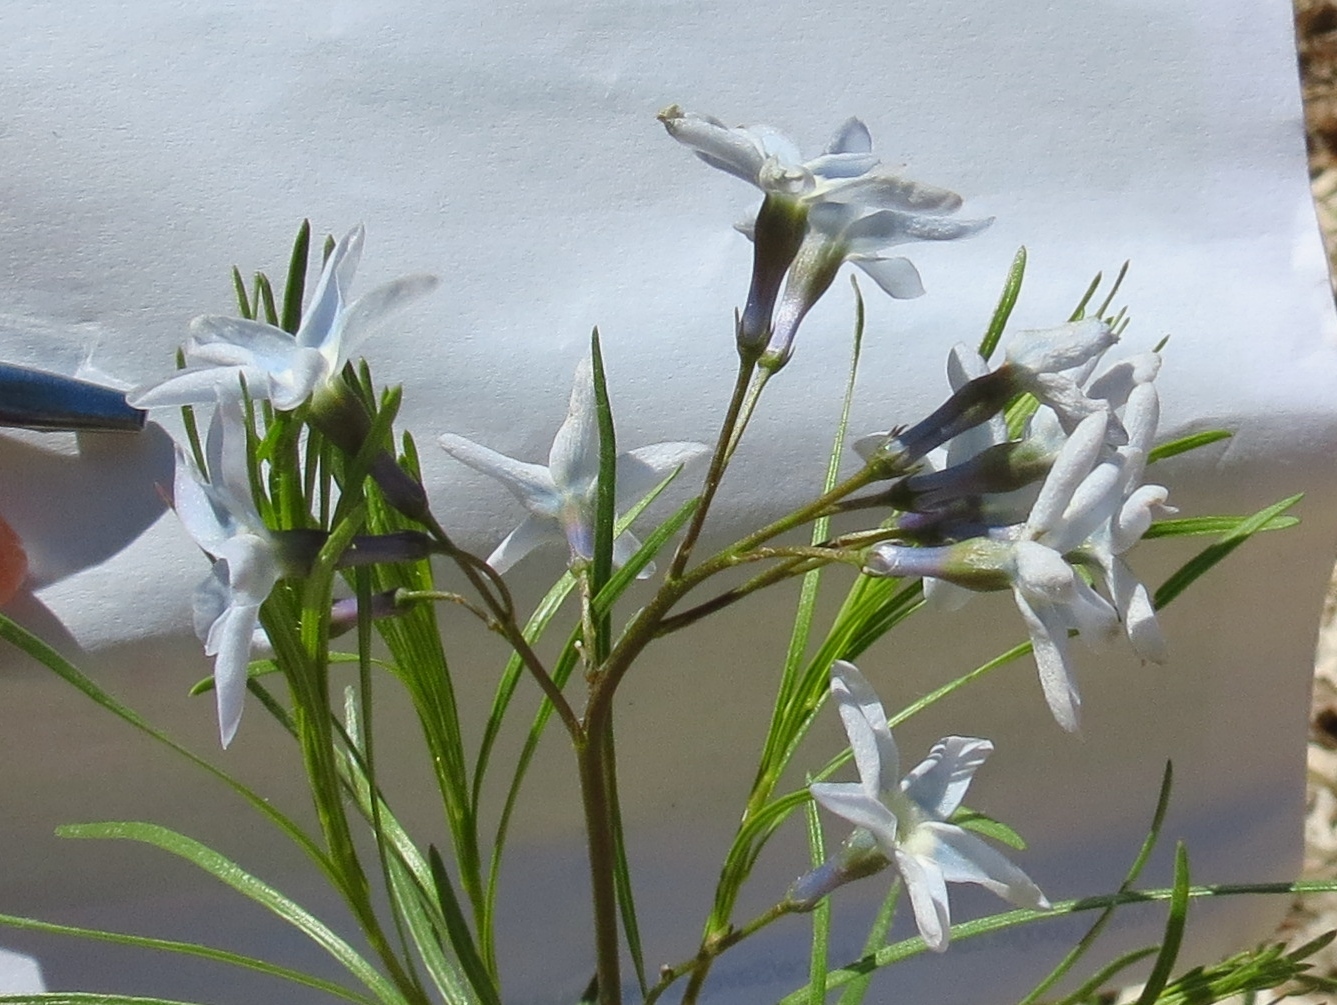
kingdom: Plantae
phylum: Tracheophyta
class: Magnoliopsida
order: Gentianales
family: Apocynaceae
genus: Amsonia
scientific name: Amsonia ciliata
